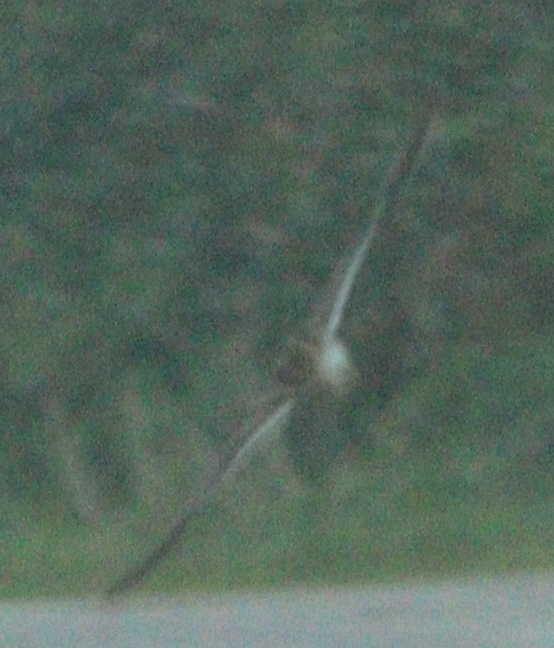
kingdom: Animalia
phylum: Chordata
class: Aves
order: Charadriiformes
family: Scolopacidae
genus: Gallinago
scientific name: Gallinago gallinago
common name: Common snipe
